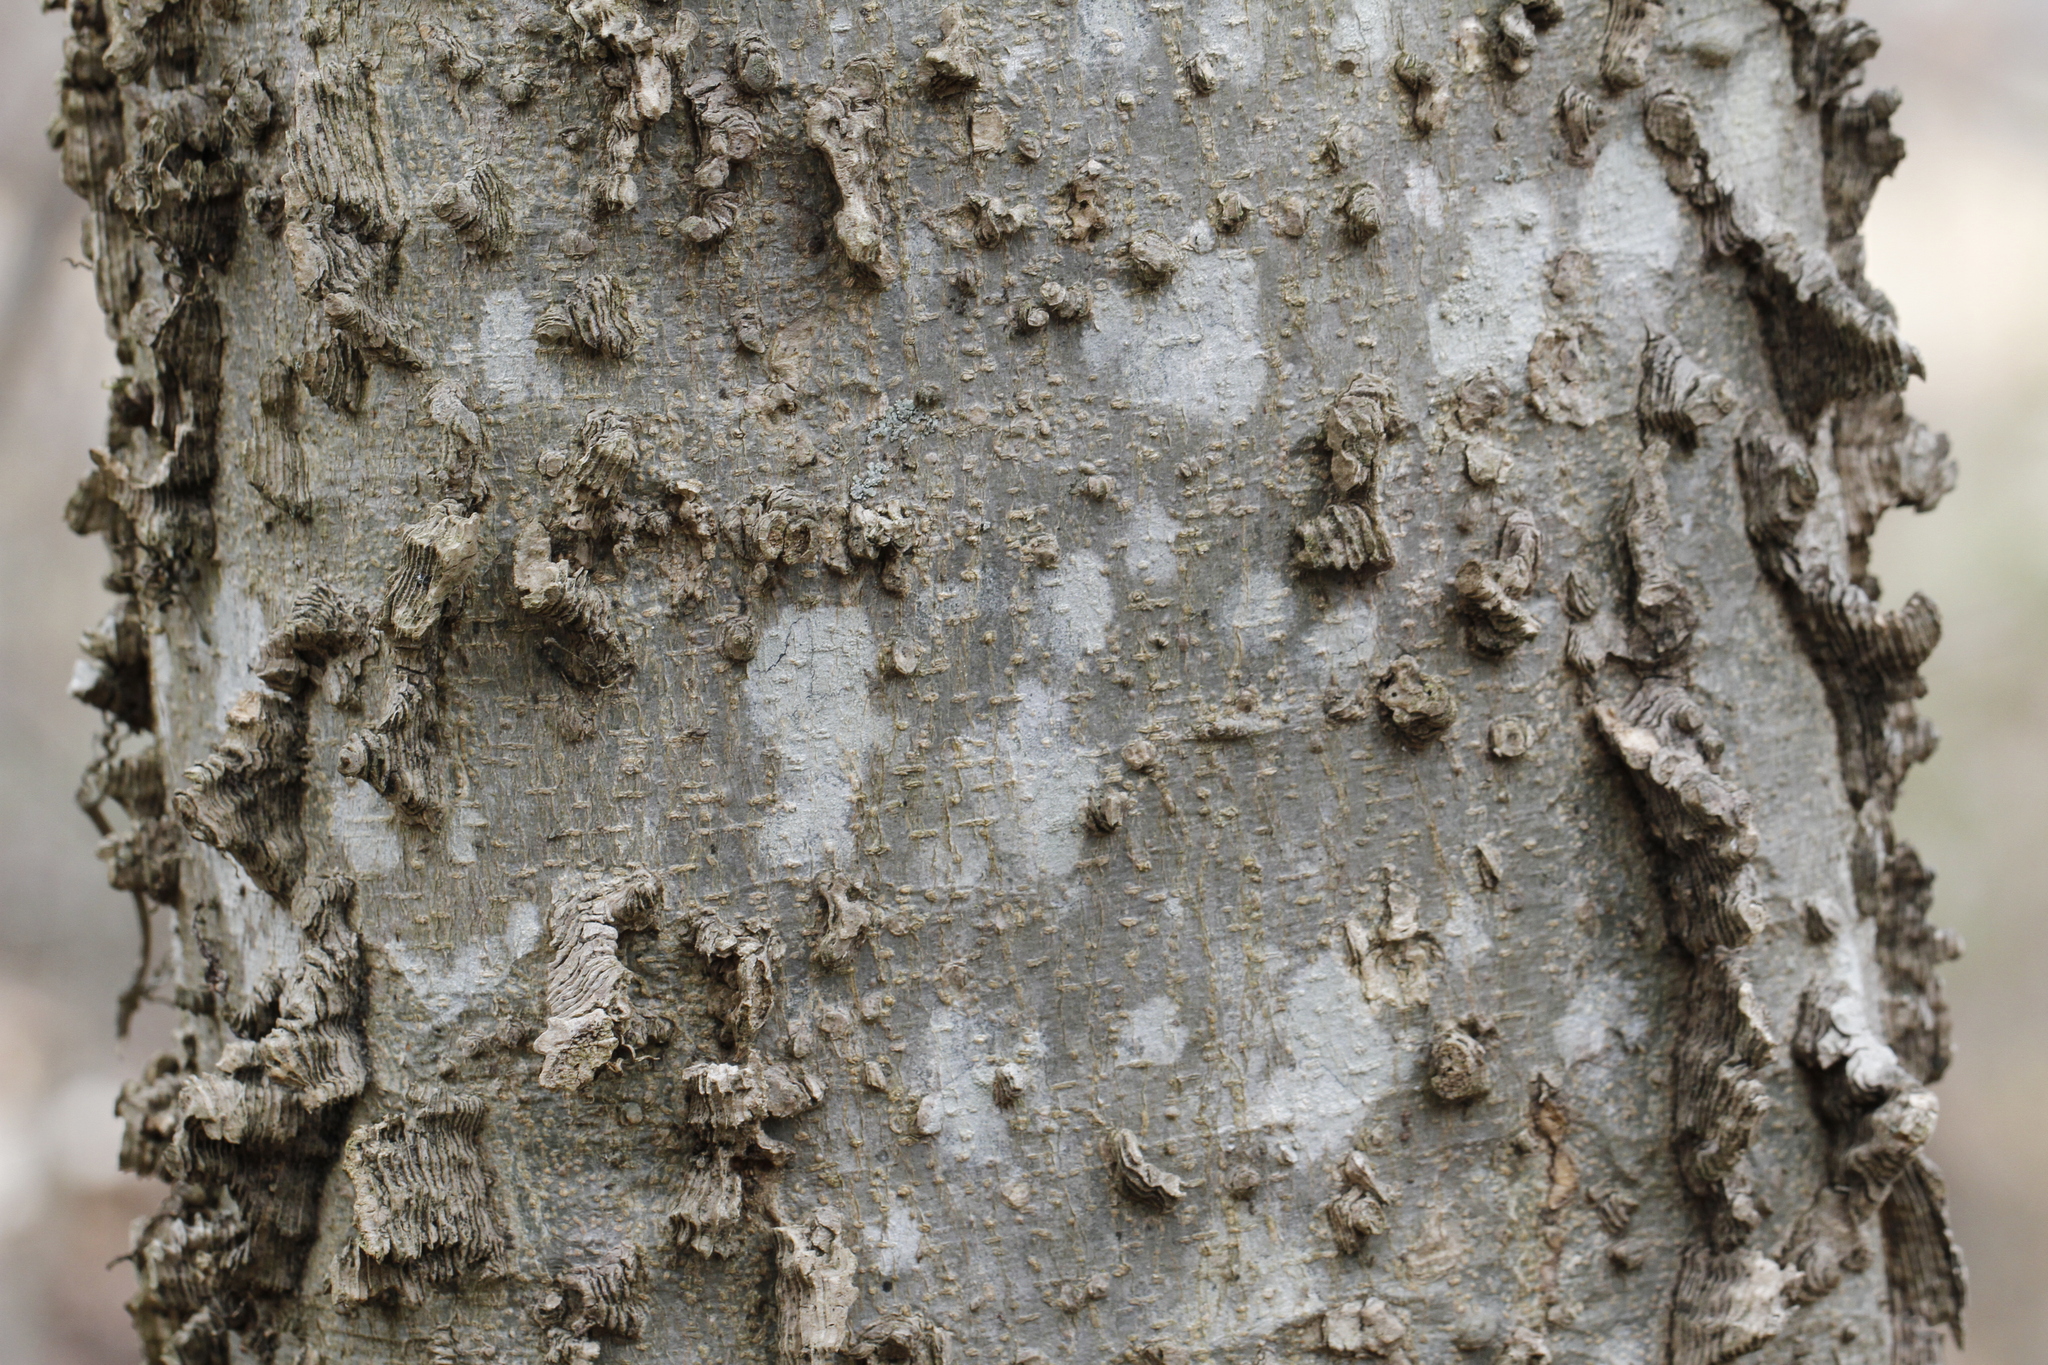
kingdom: Plantae
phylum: Tracheophyta
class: Magnoliopsida
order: Rosales
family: Cannabaceae
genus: Celtis
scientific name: Celtis occidentalis
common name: Common hackberry
